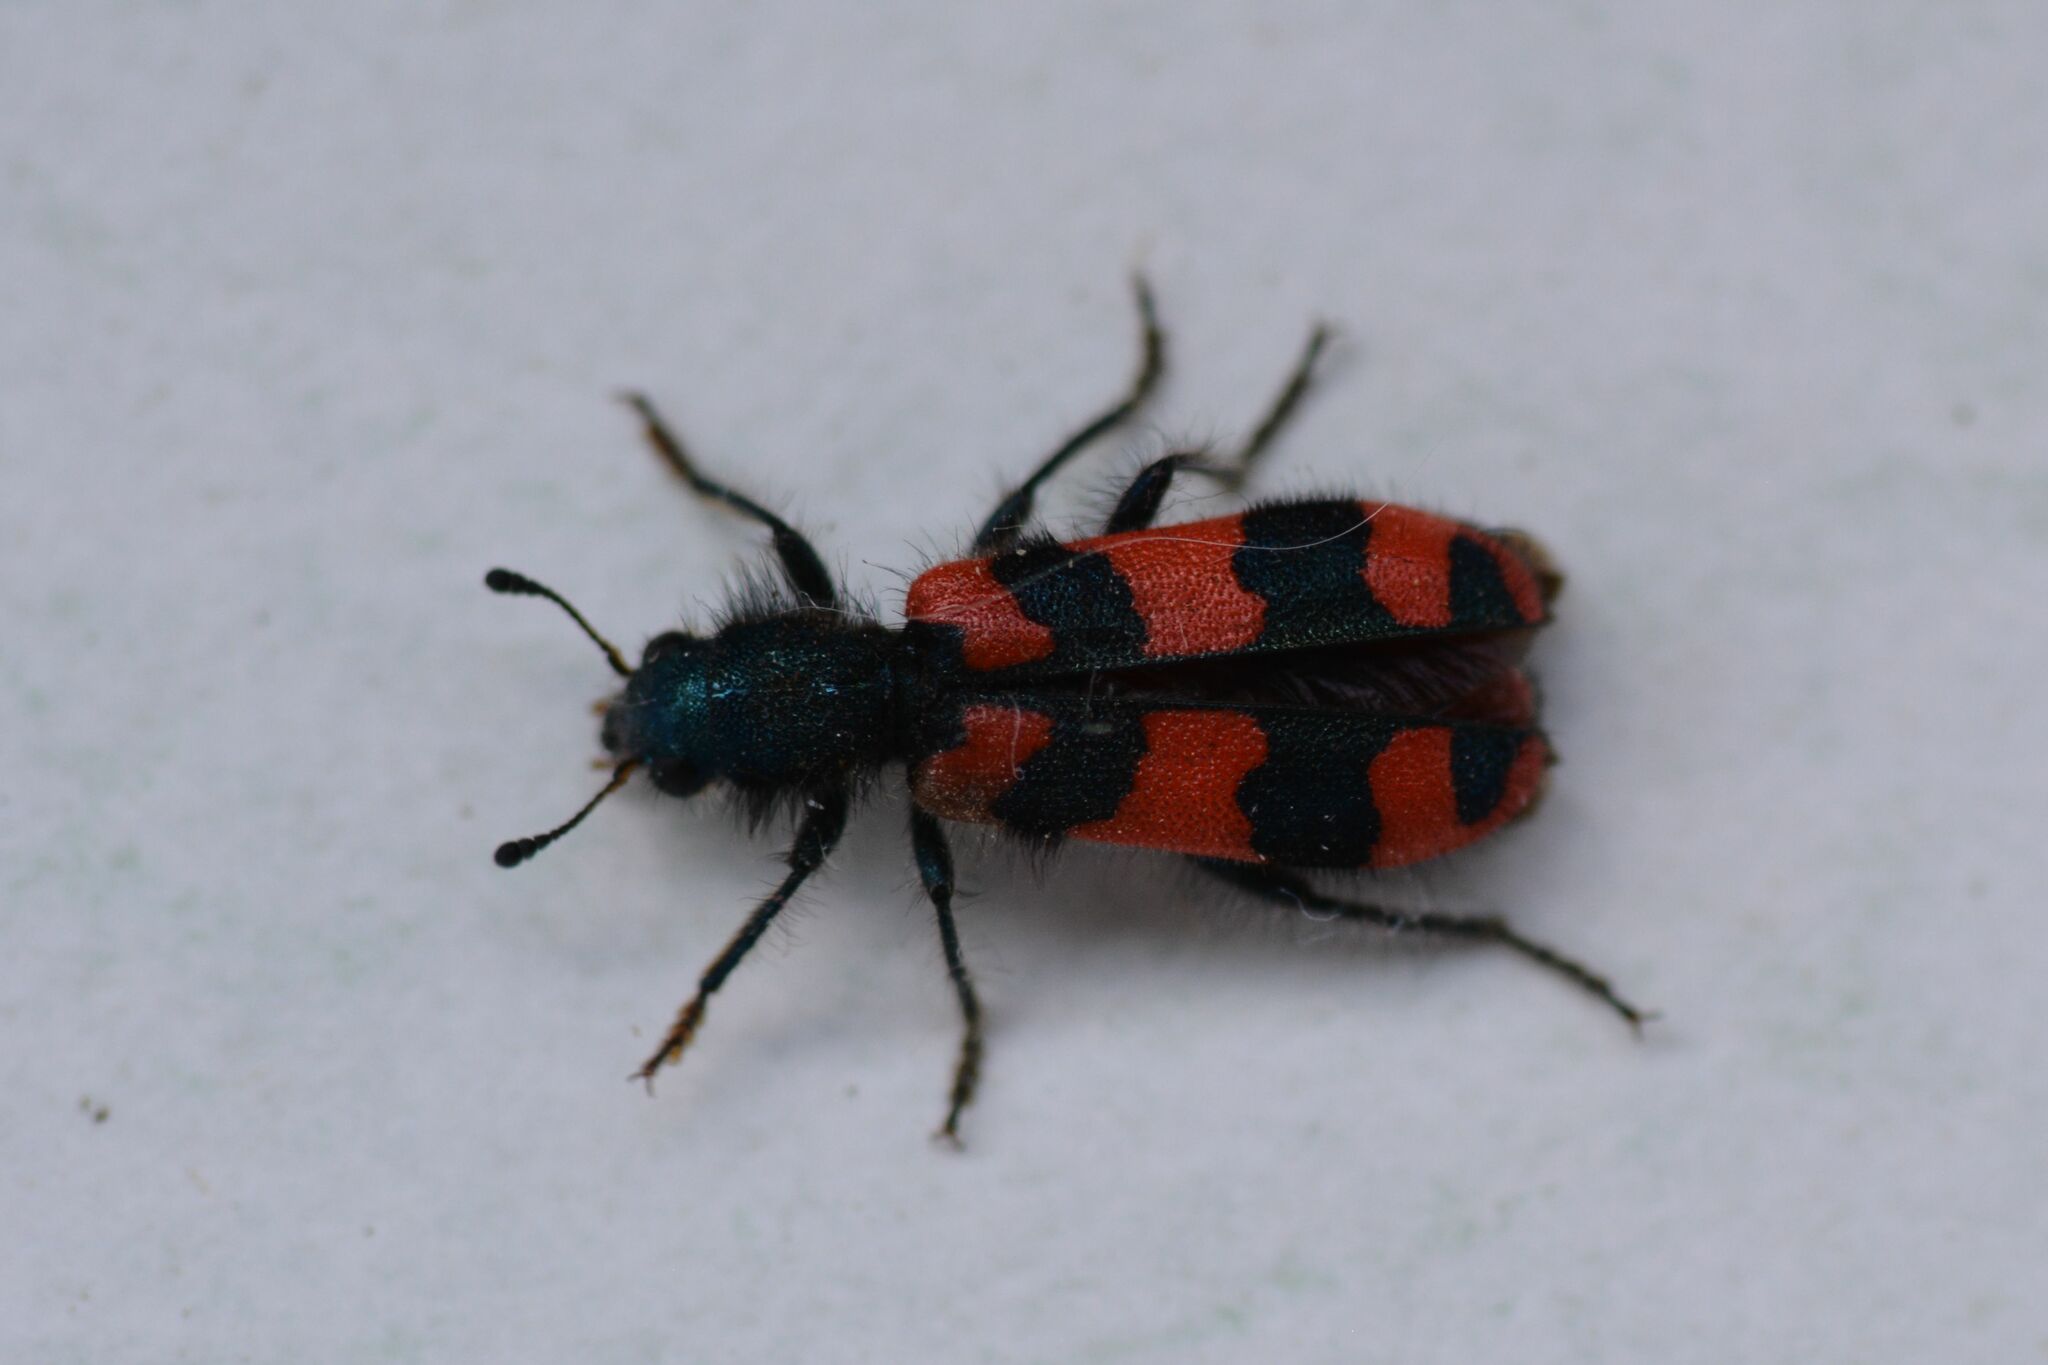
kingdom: Animalia
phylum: Arthropoda
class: Insecta
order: Coleoptera
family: Cleridae
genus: Trichodes
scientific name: Trichodes alvearius
